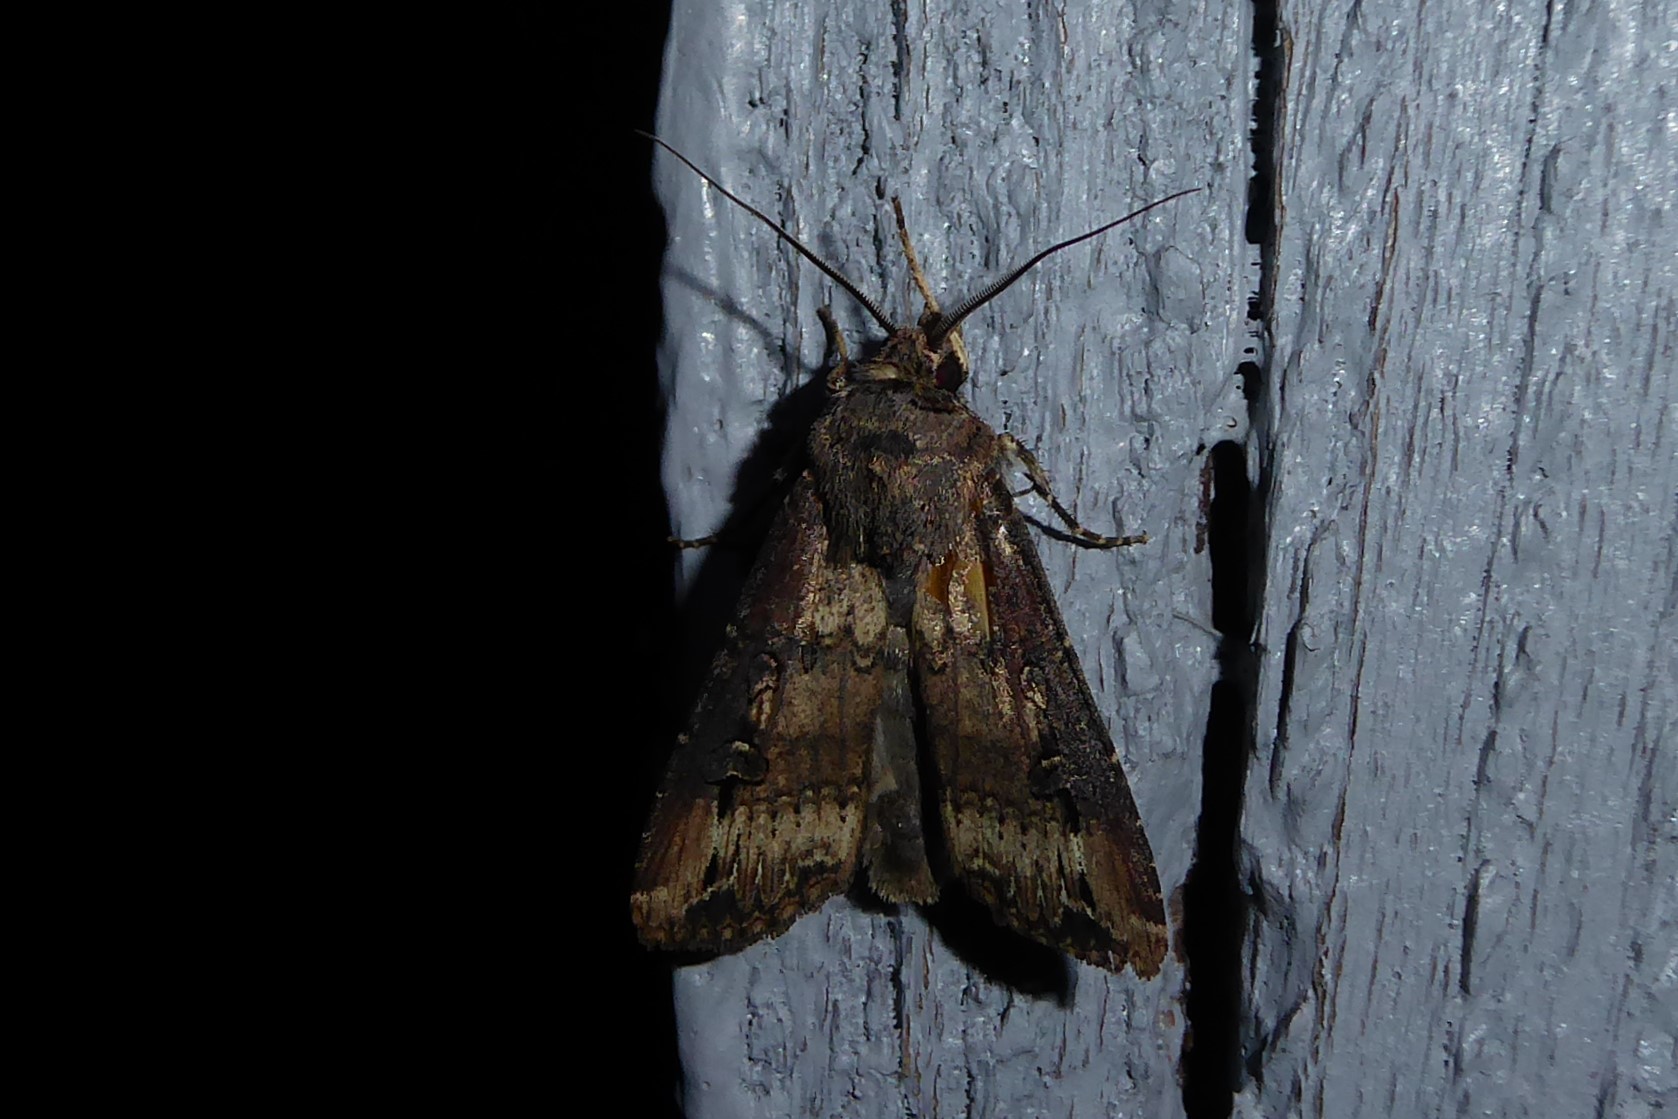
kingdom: Animalia
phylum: Arthropoda
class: Insecta
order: Lepidoptera
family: Noctuidae
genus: Agrotis
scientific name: Agrotis ipsilon
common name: Dark sword-grass
